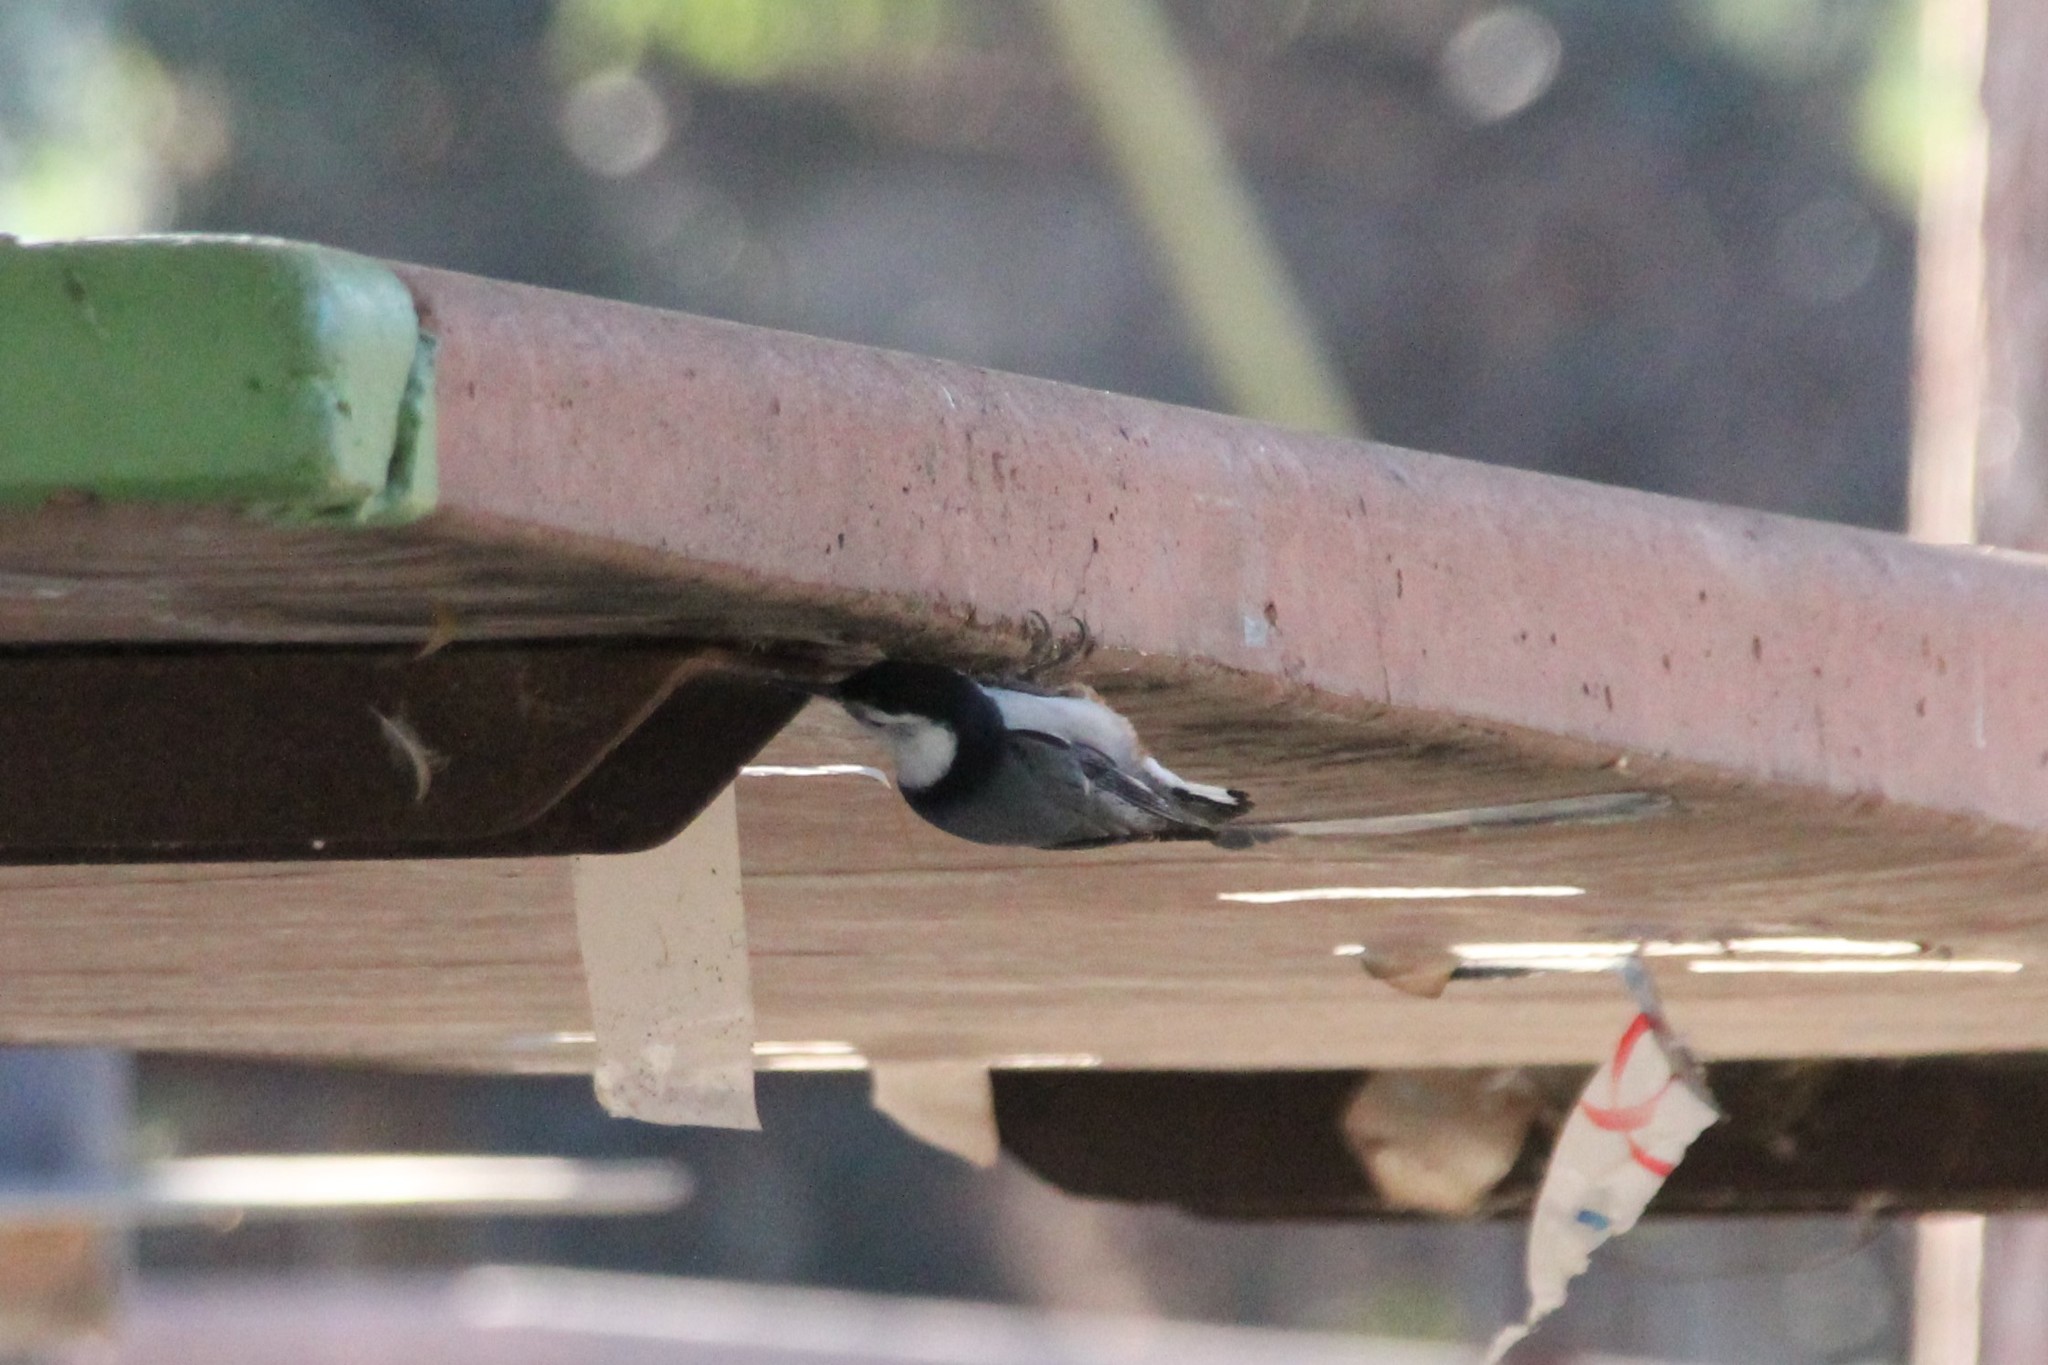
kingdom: Animalia
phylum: Chordata
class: Aves
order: Passeriformes
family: Sittidae
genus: Sitta
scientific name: Sitta carolinensis
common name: White-breasted nuthatch
